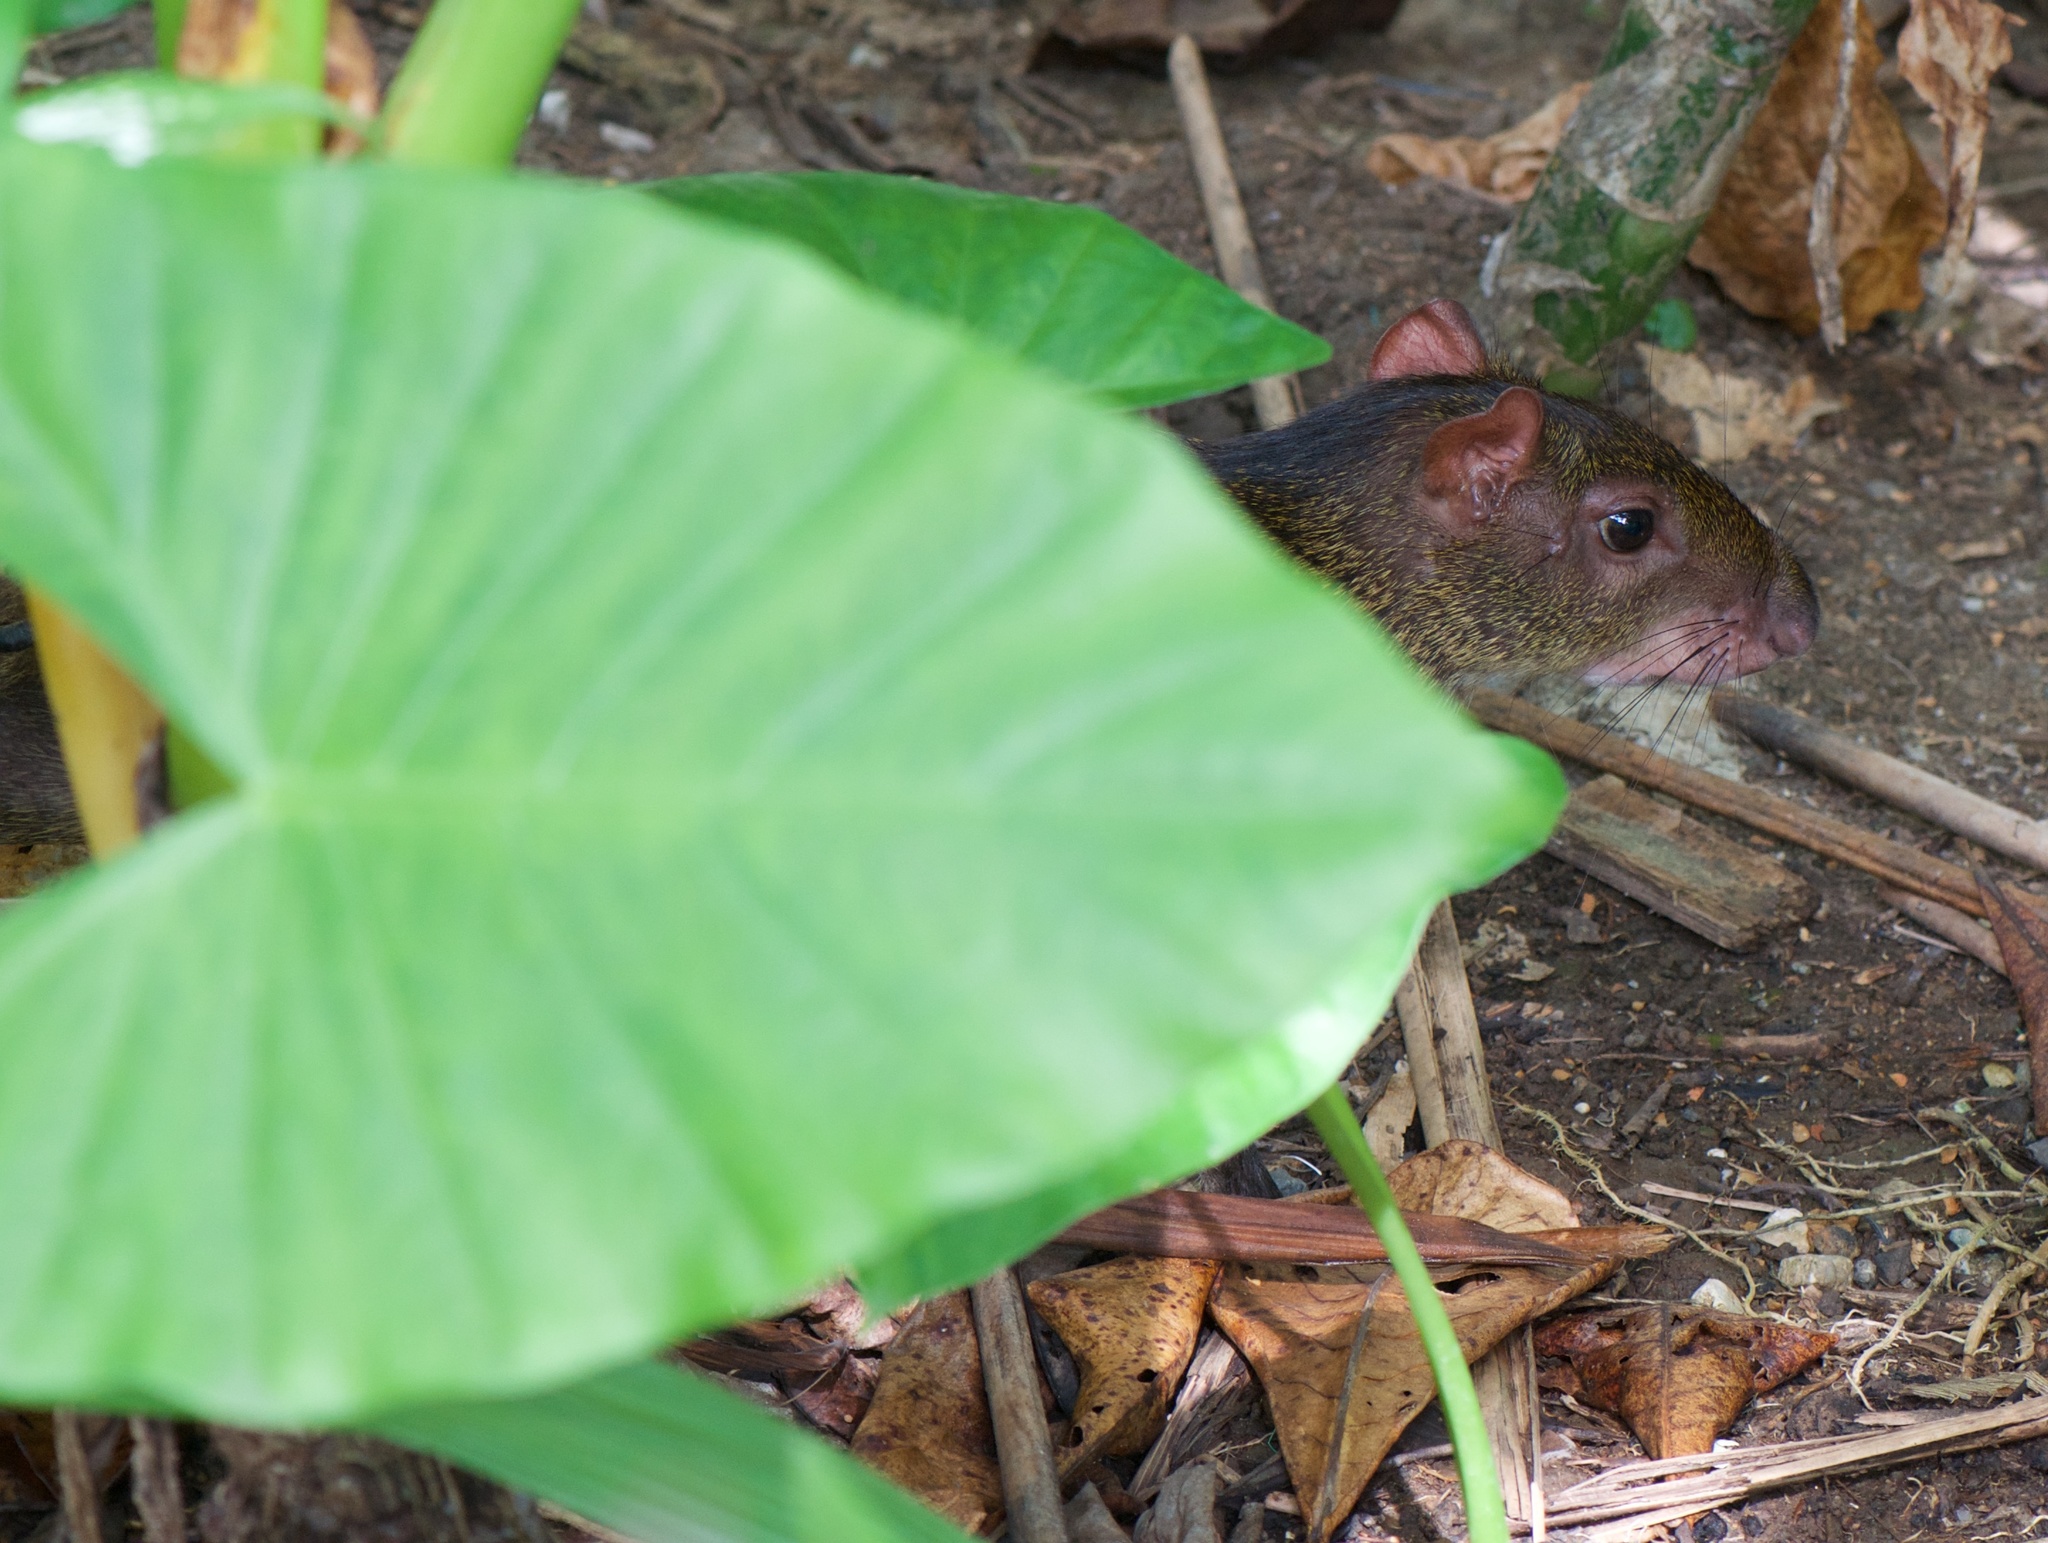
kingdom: Animalia
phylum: Chordata
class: Mammalia
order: Rodentia
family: Dasyproctidae
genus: Dasyprocta
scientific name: Dasyprocta punctata
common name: Central american agouti
